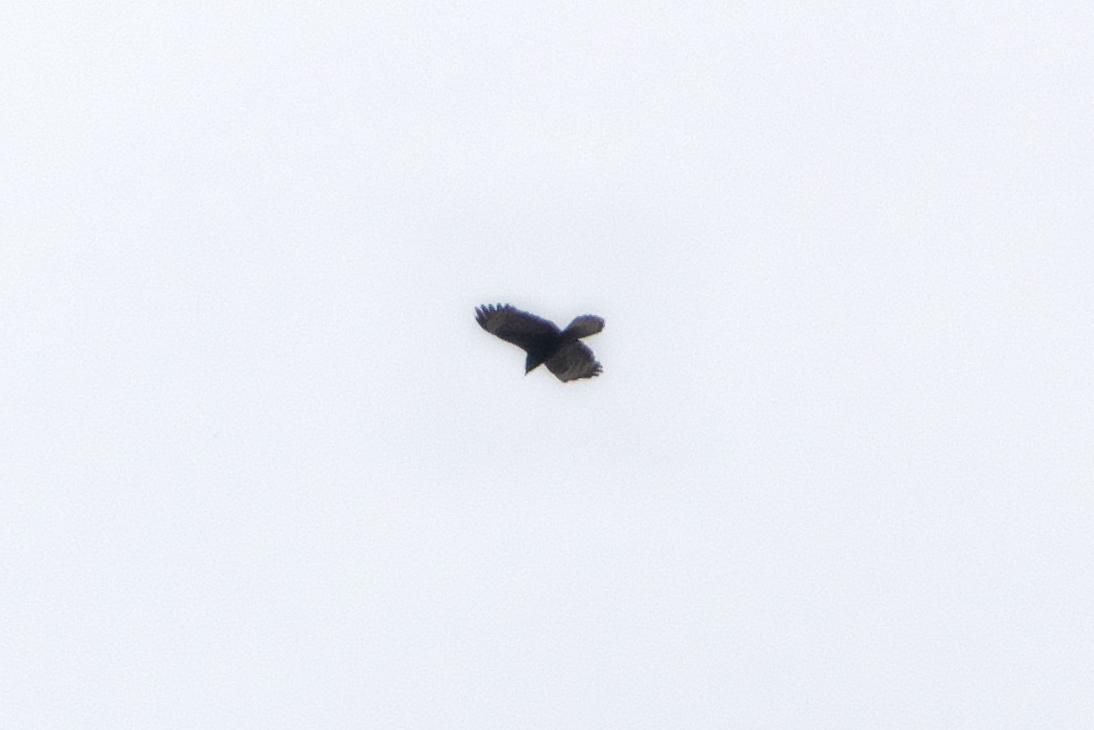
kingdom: Animalia
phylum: Chordata
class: Aves
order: Accipitriformes
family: Accipitridae
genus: Pernis
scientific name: Pernis apivorus
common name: European honey buzzard
